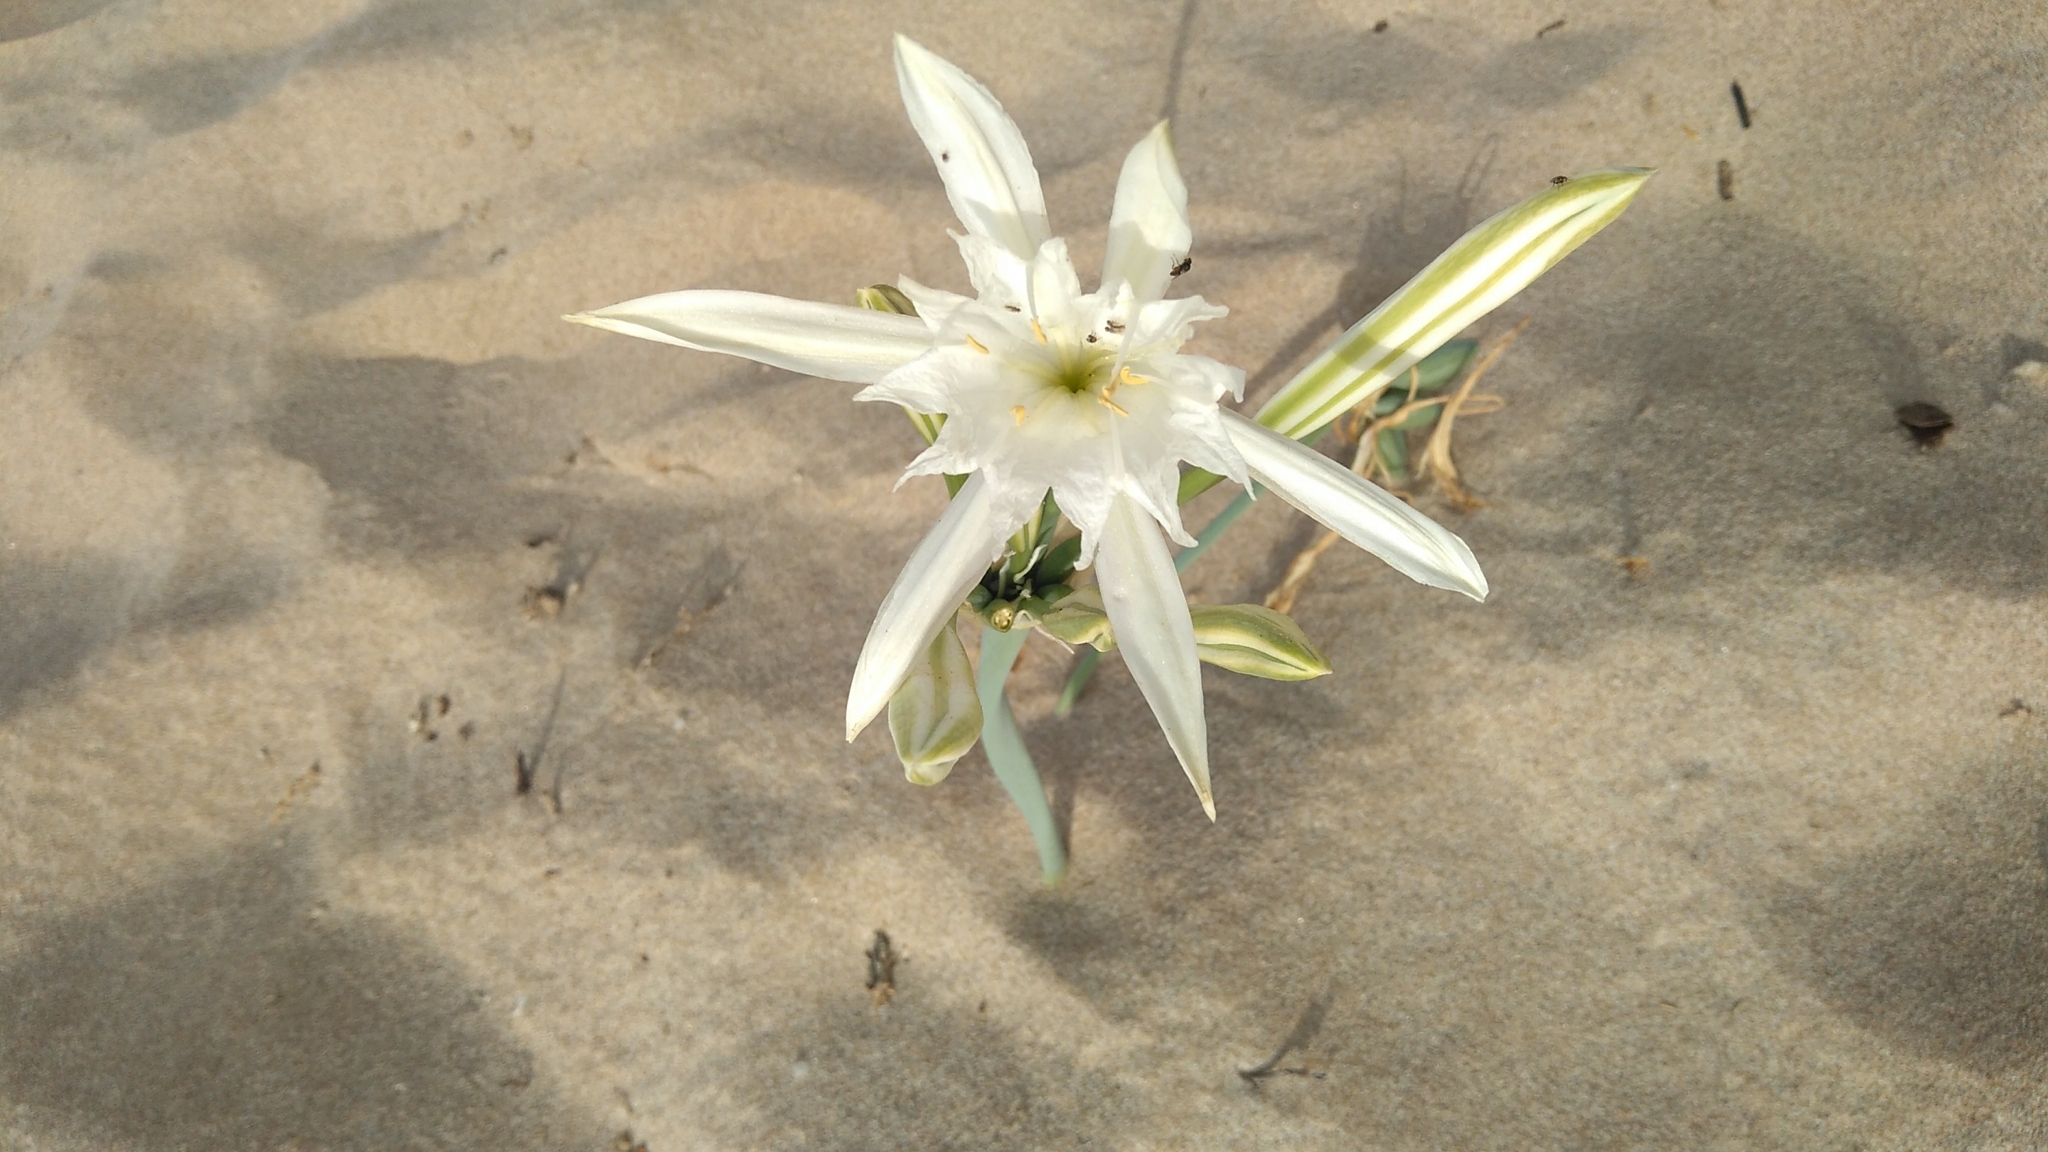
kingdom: Plantae
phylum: Tracheophyta
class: Liliopsida
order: Asparagales
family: Amaryllidaceae
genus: Pancratium
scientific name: Pancratium maritimum
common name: Sea-daffodil
